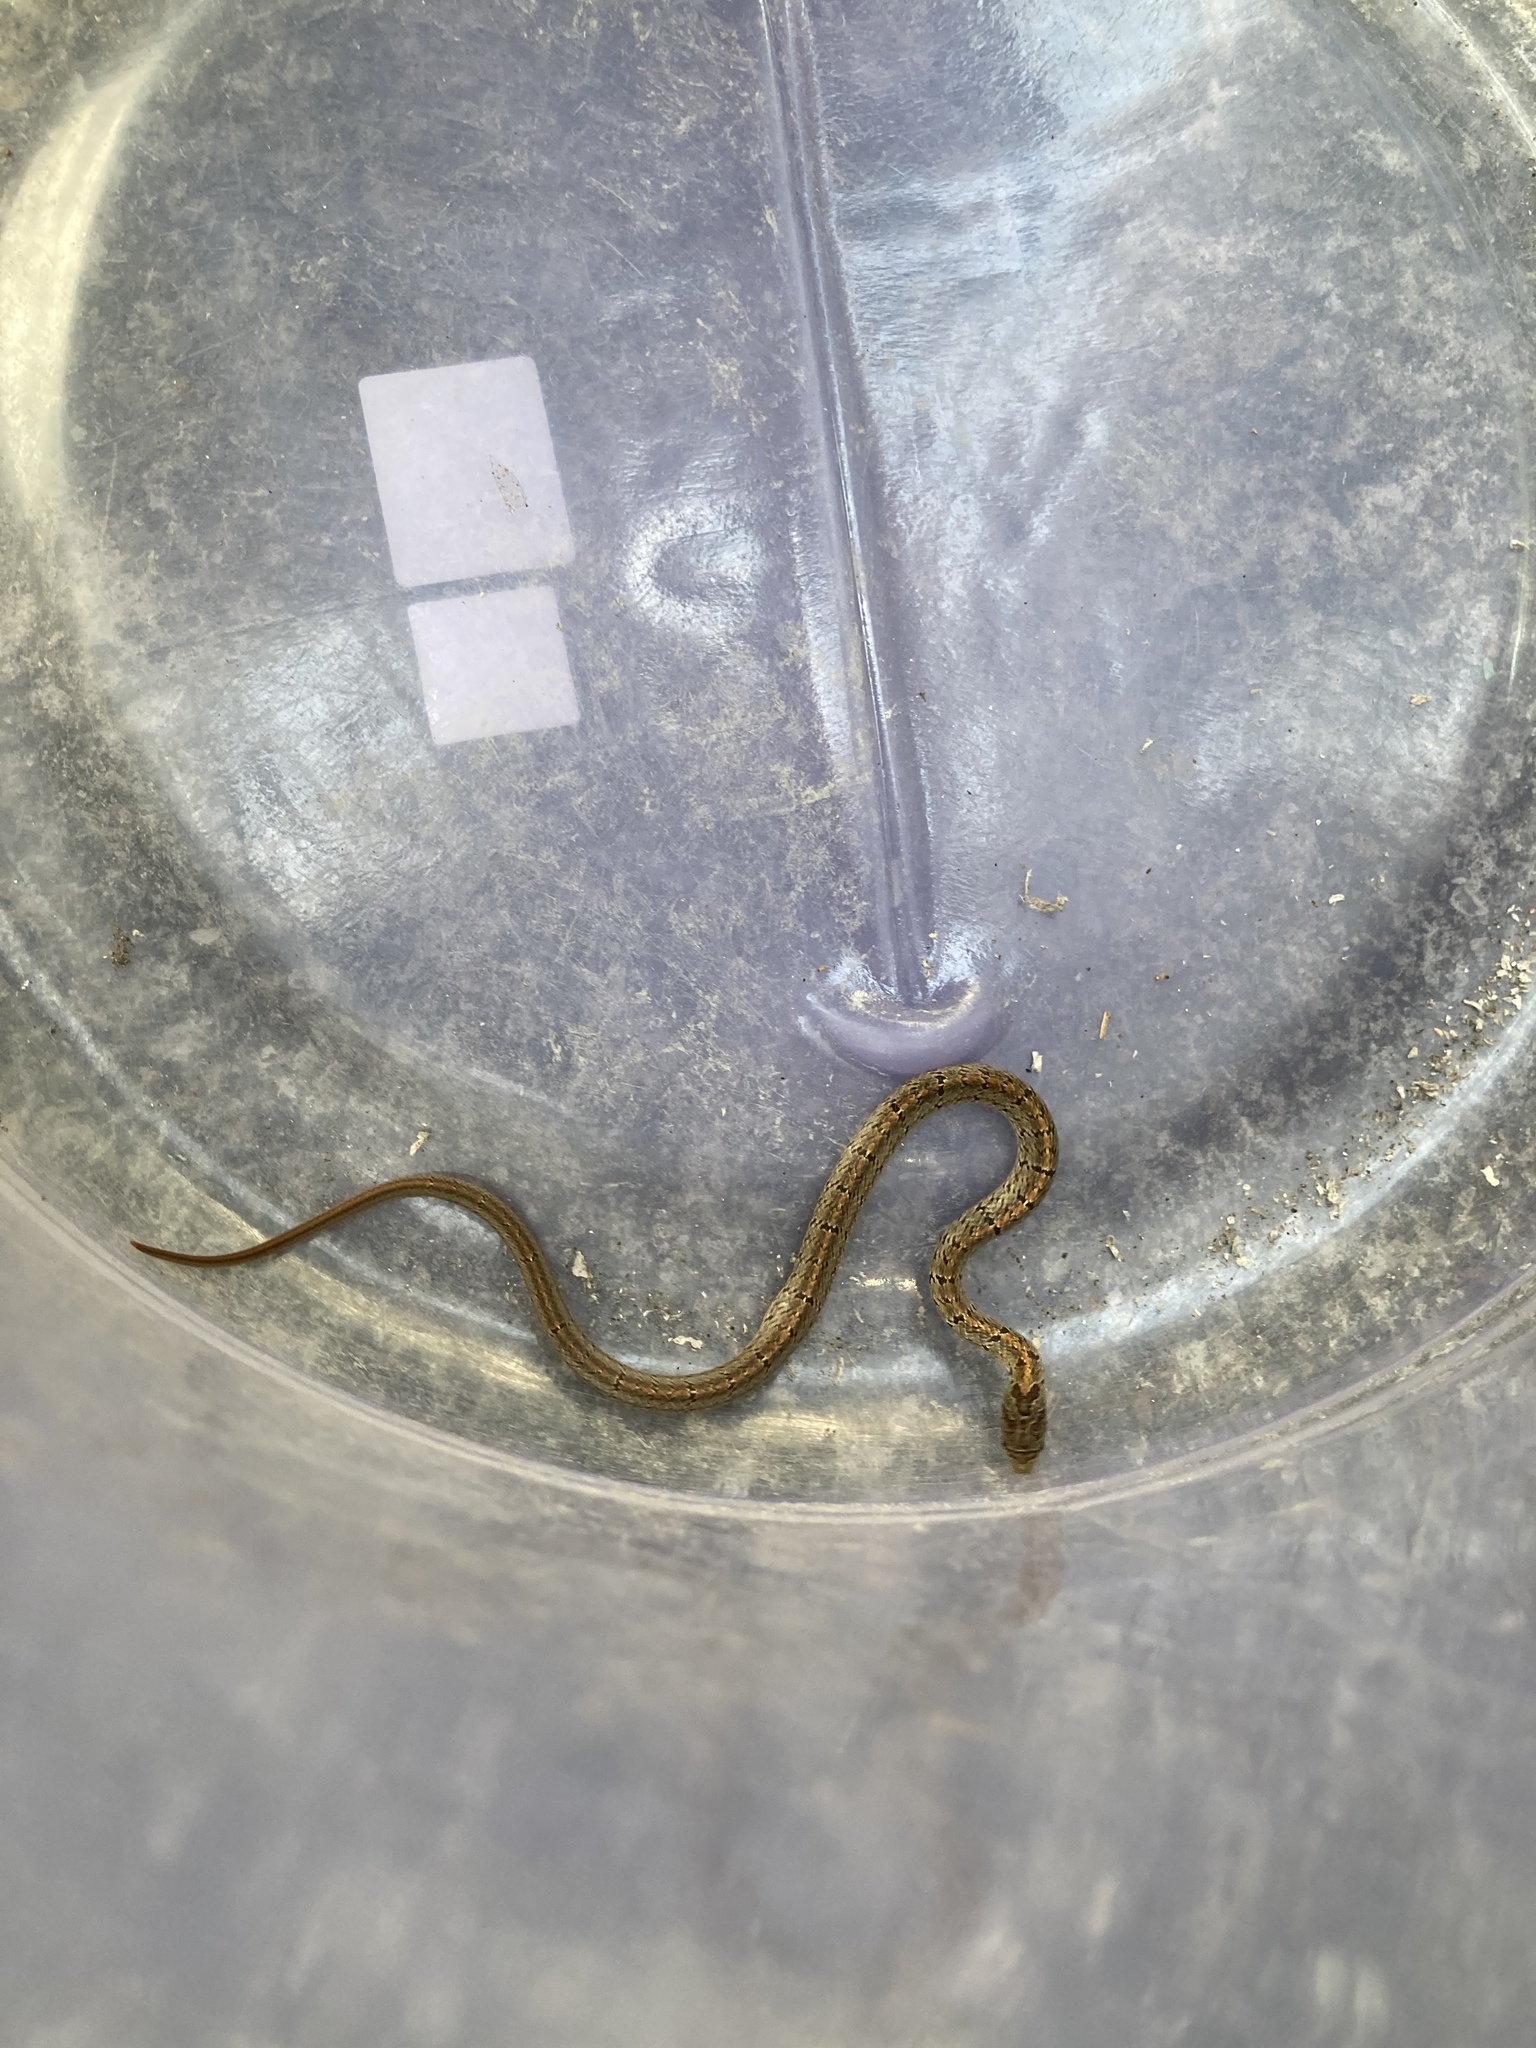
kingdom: Animalia
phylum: Chordata
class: Squamata
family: Colubridae
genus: Oligodon
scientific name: Oligodon formosanus
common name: Formosa kukri snake
